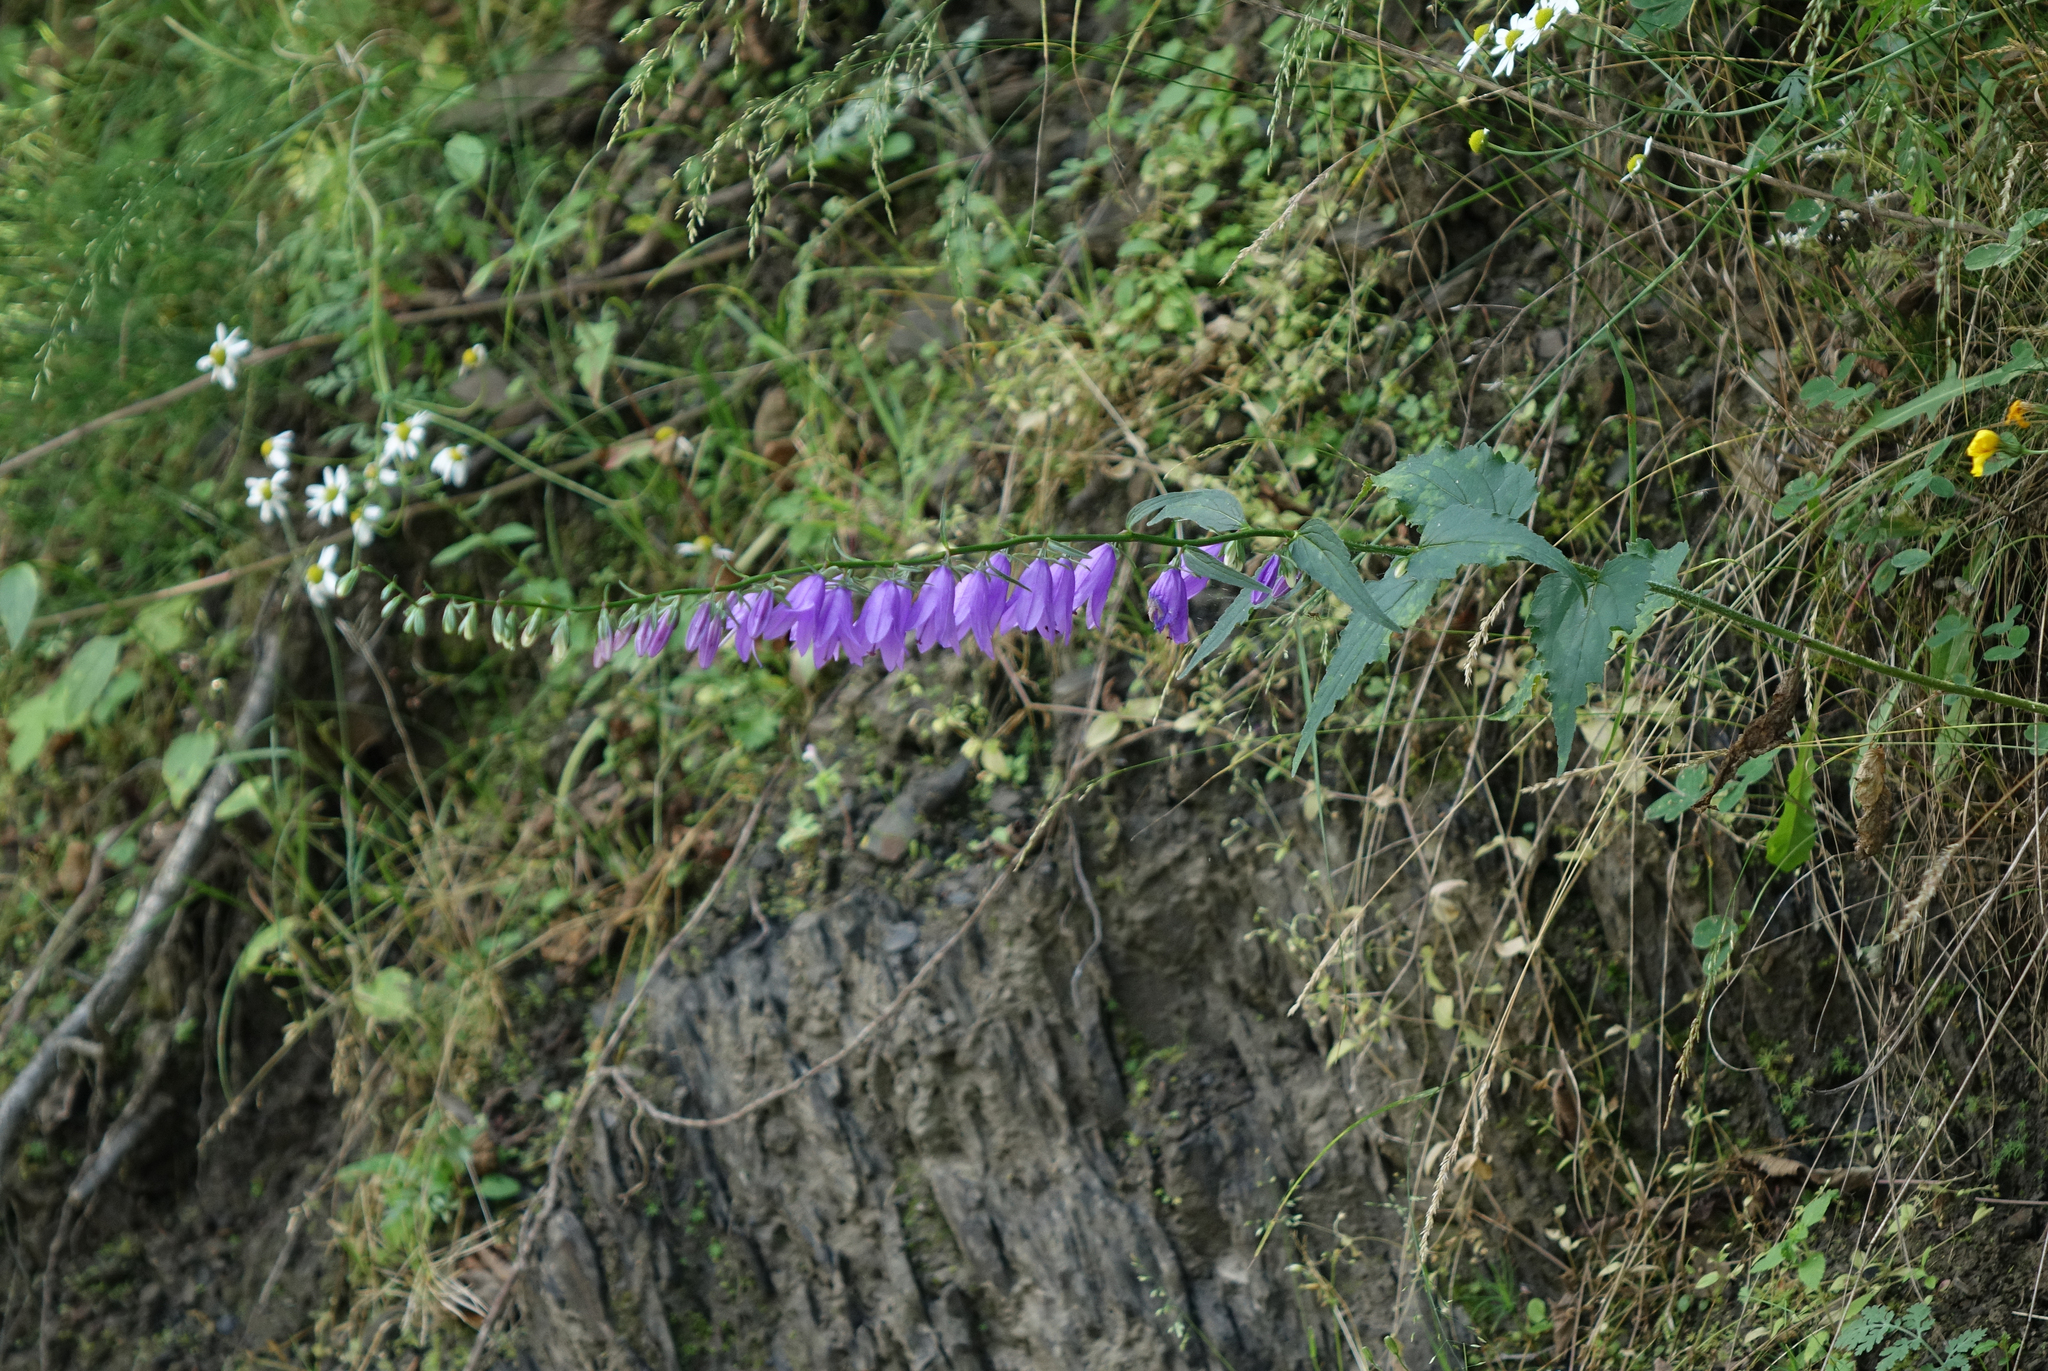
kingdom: Plantae
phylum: Tracheophyta
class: Magnoliopsida
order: Asterales
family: Campanulaceae
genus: Campanula
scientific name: Campanula rapunculoides
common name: Creeping bellflower
